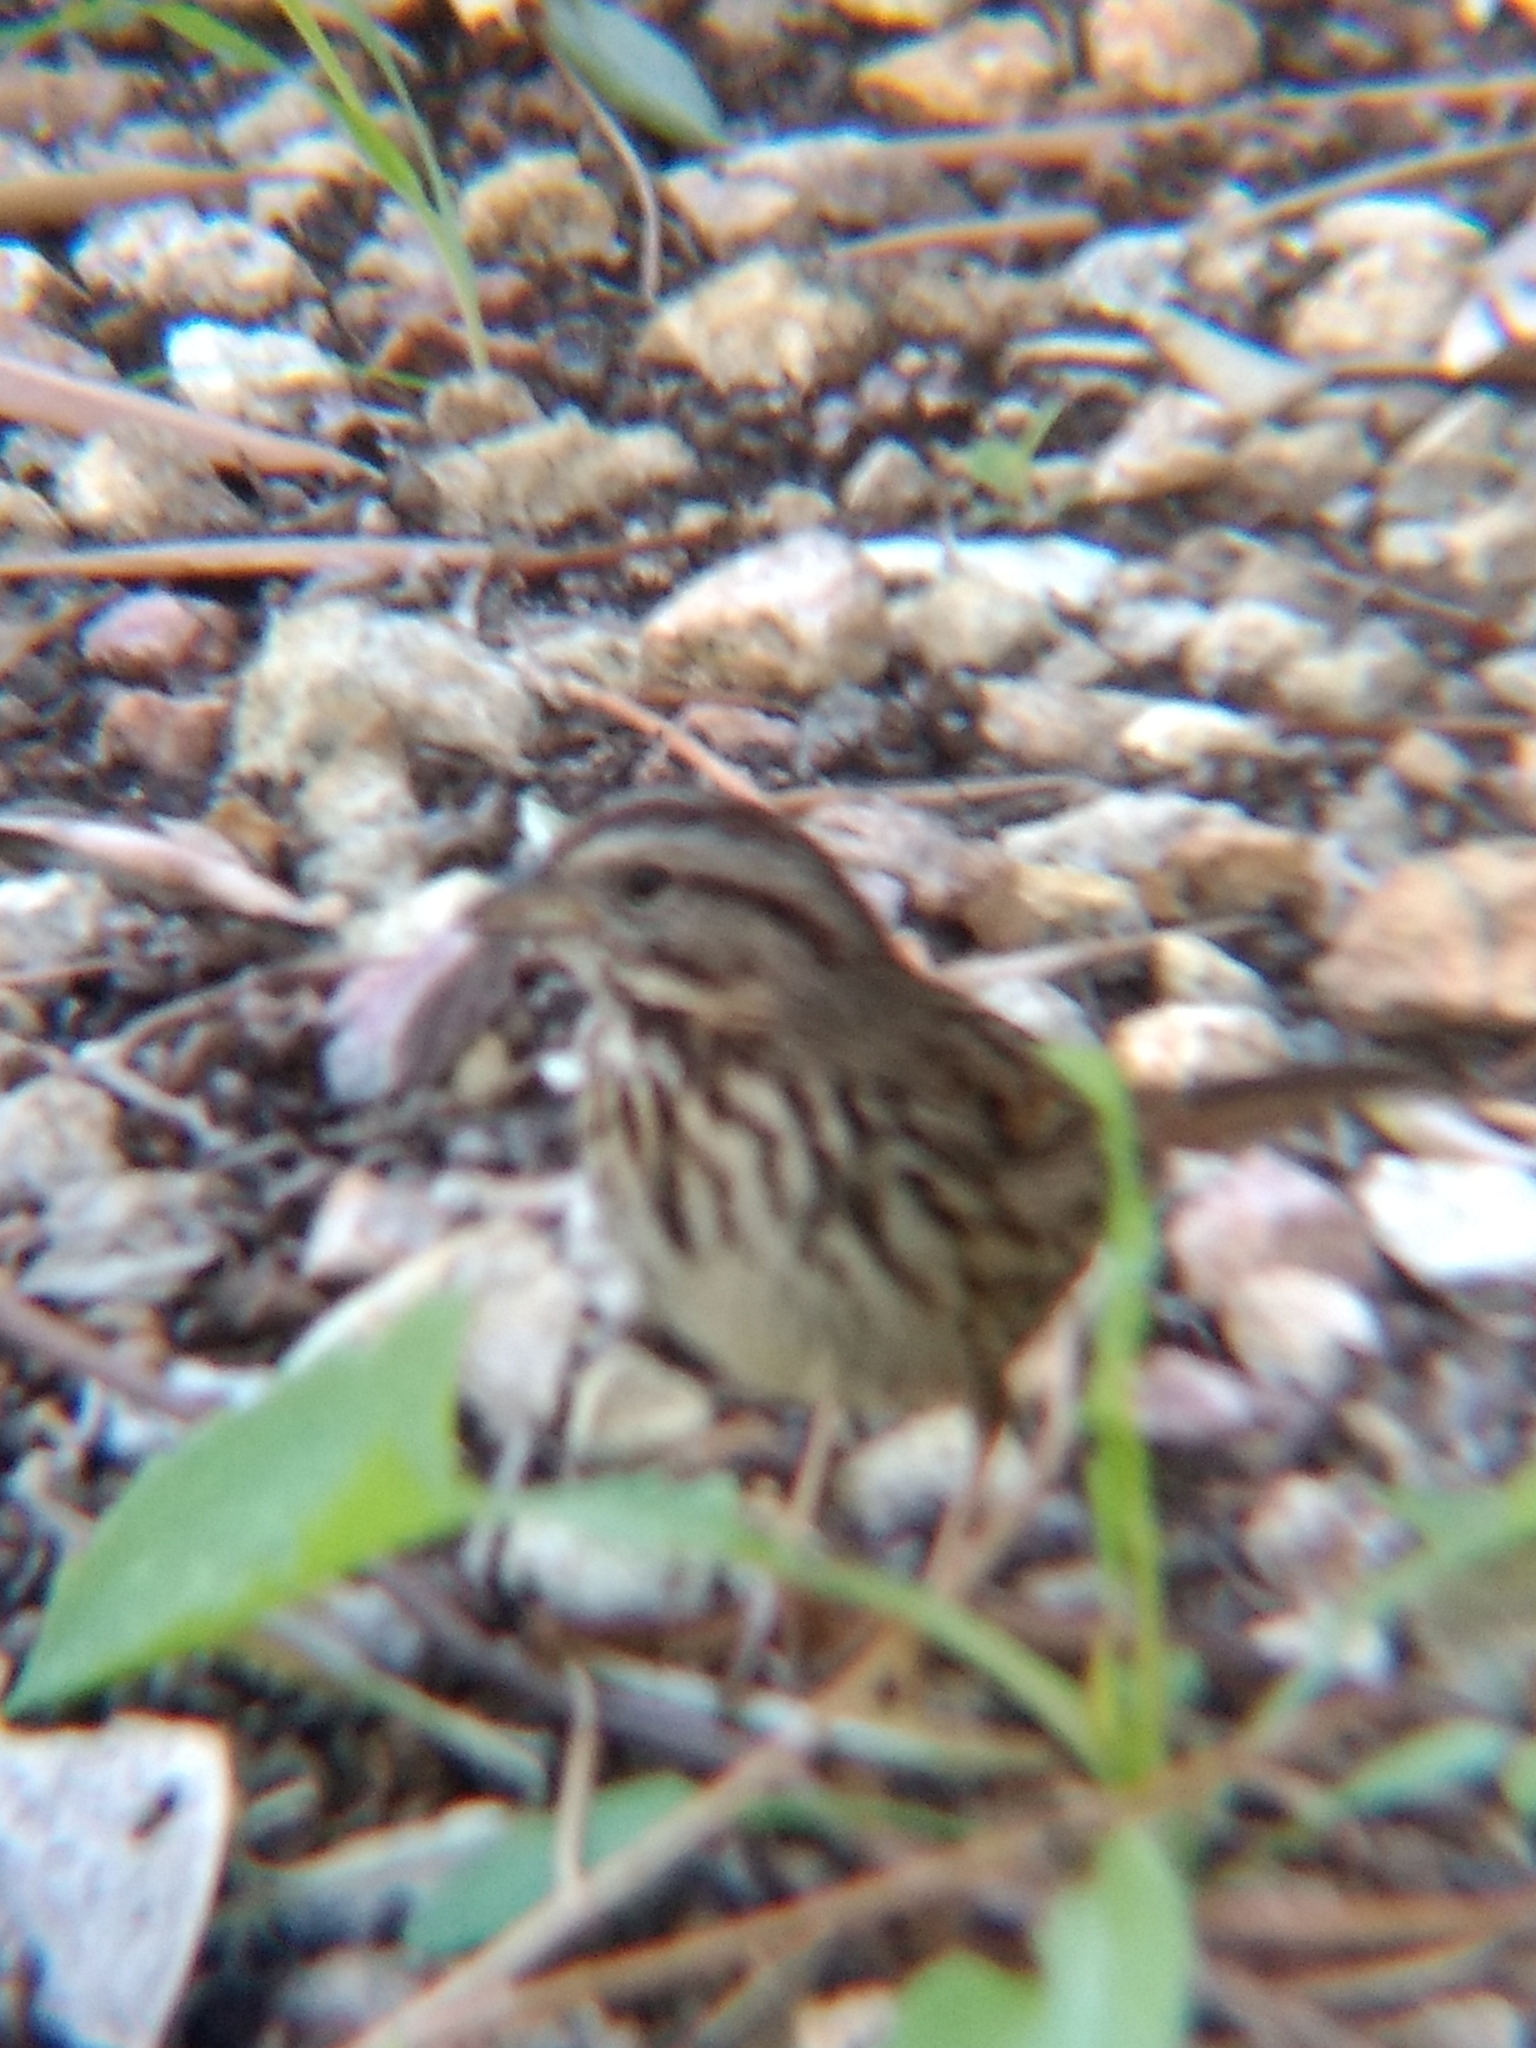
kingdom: Animalia
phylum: Chordata
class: Aves
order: Passeriformes
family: Passerellidae
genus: Melospiza
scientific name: Melospiza melodia
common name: Song sparrow
